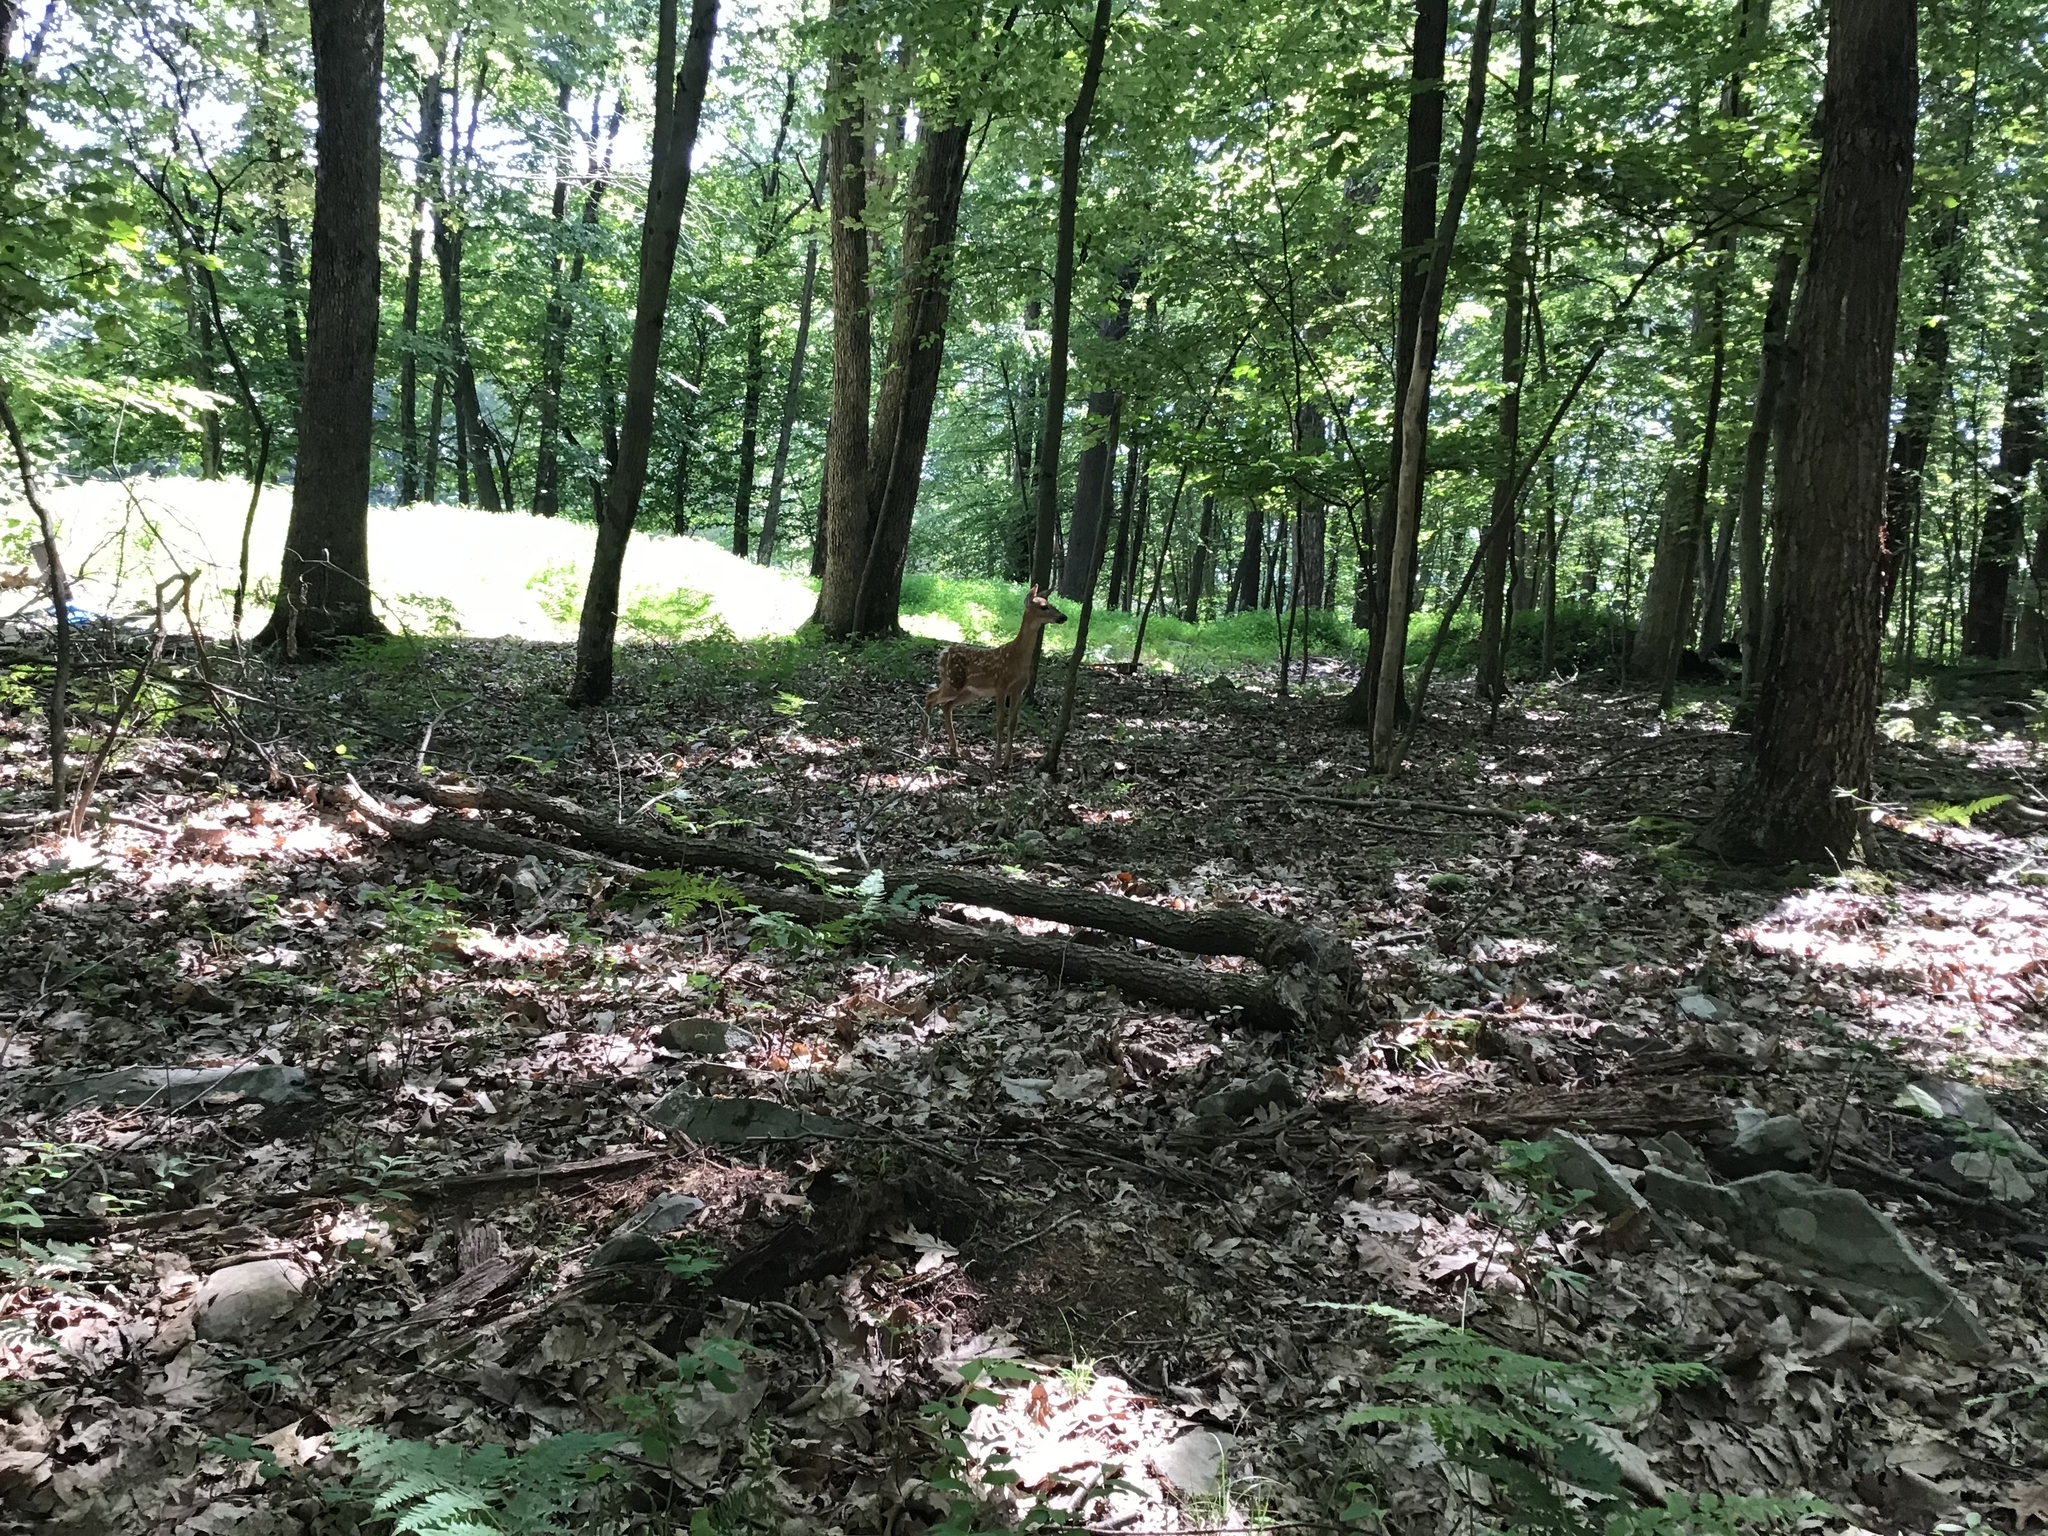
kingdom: Animalia
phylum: Chordata
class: Mammalia
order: Artiodactyla
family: Cervidae
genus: Odocoileus
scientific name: Odocoileus virginianus
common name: White-tailed deer
